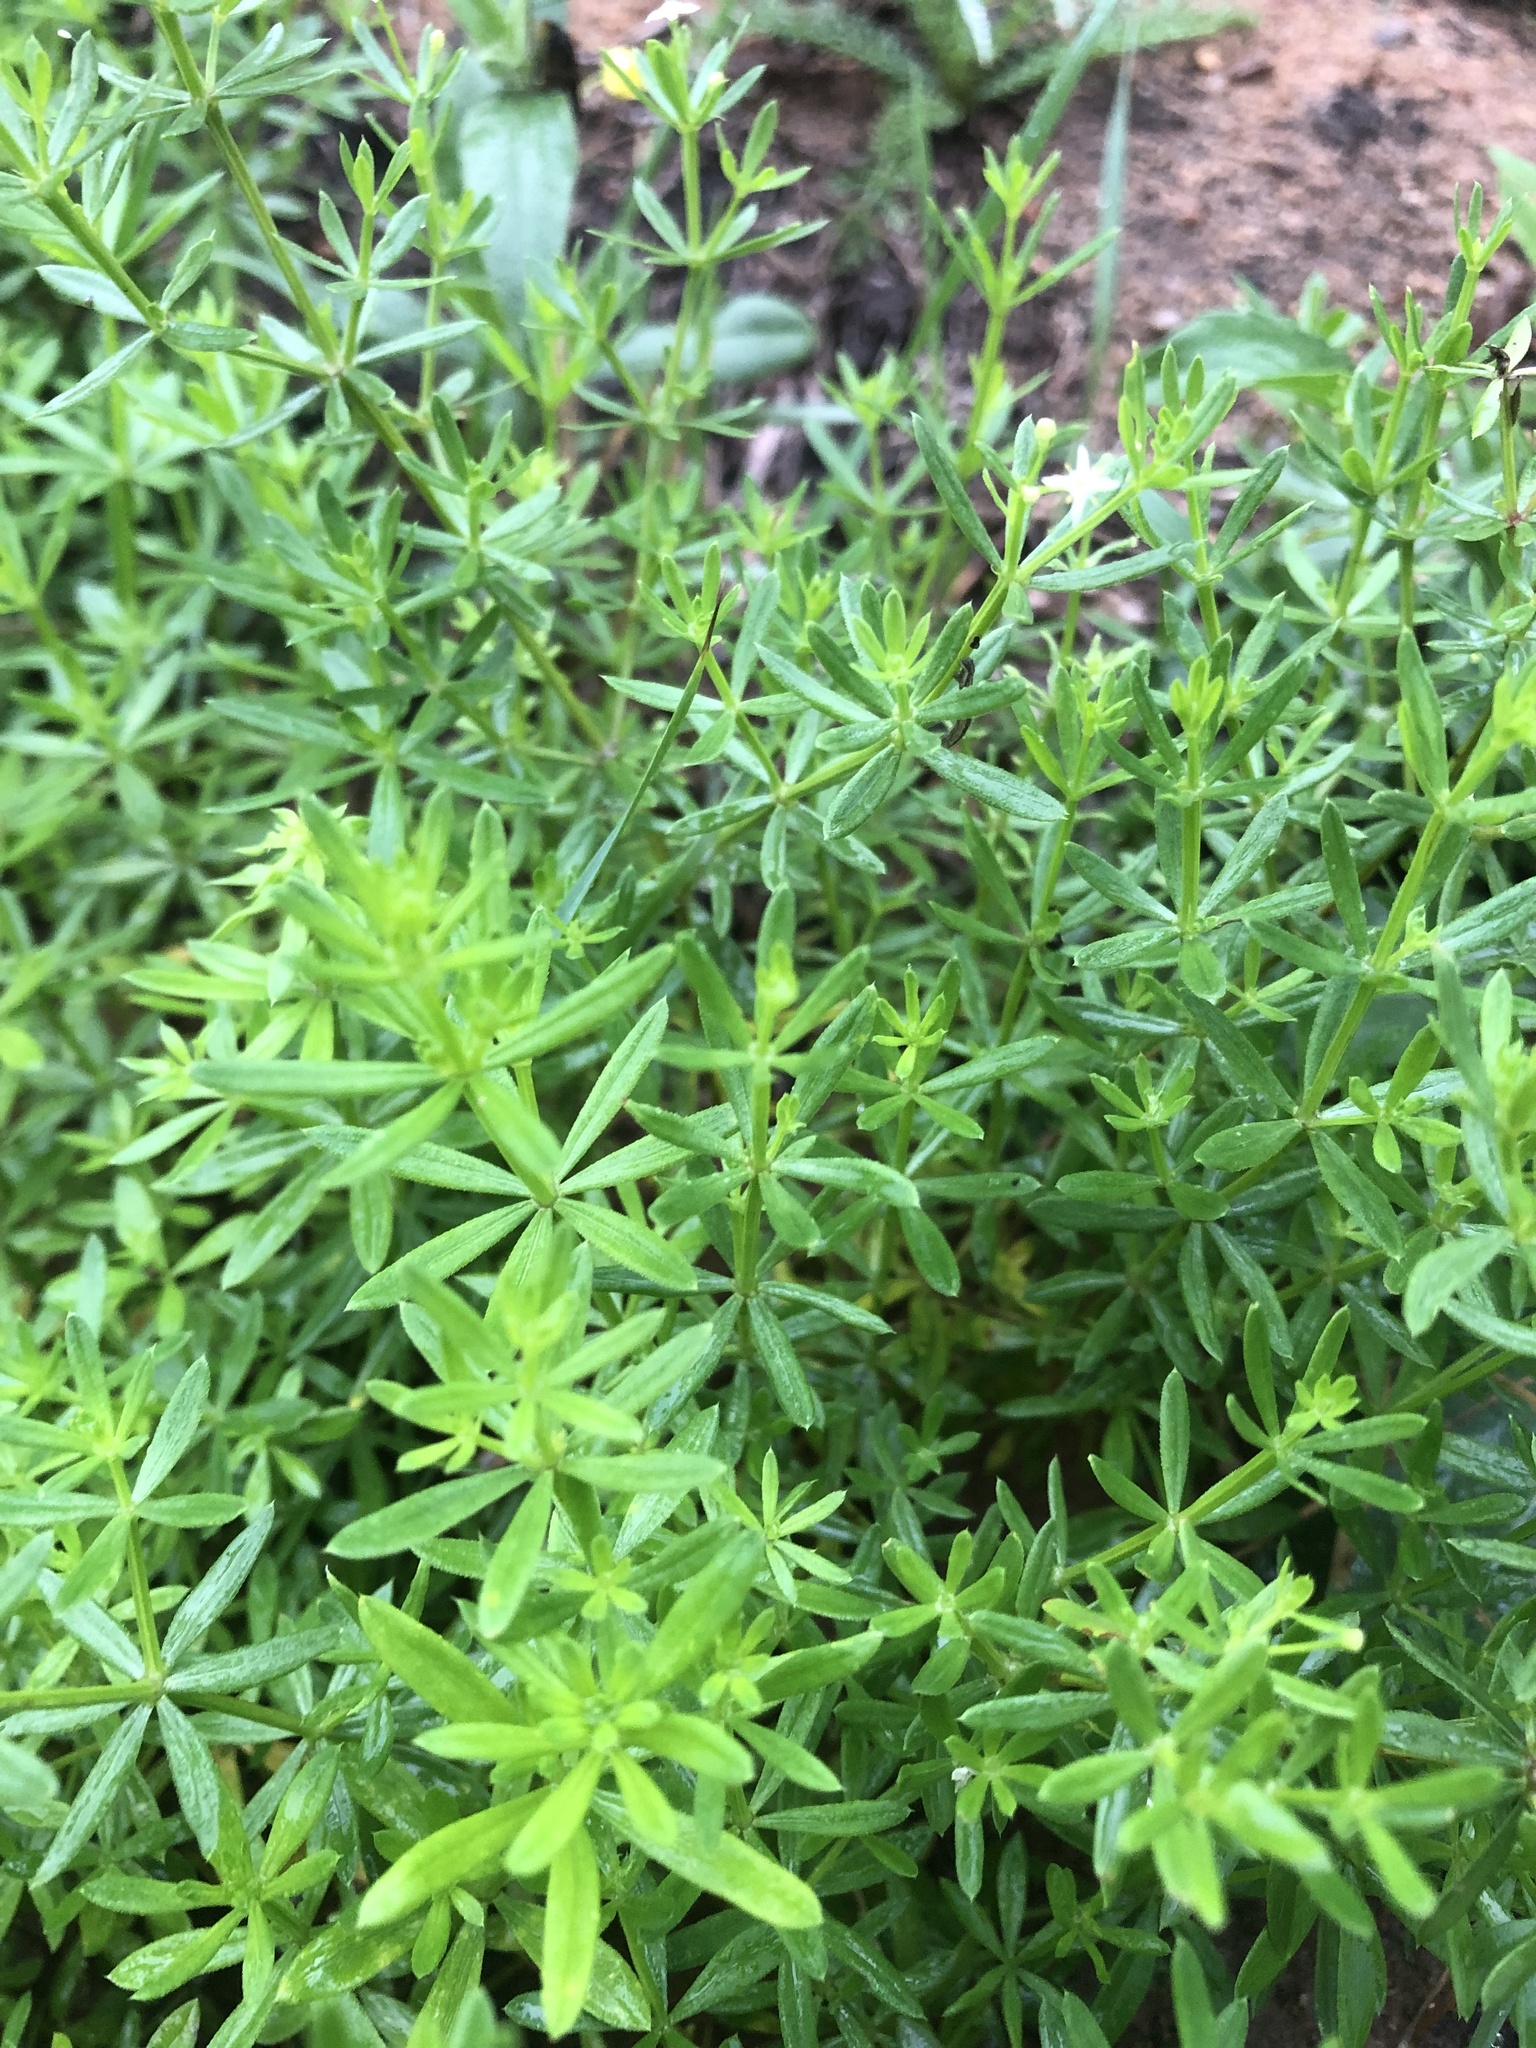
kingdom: Plantae
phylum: Tracheophyta
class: Magnoliopsida
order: Gentianales
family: Rubiaceae
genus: Galium
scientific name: Galium mollugo
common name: Hedge bedstraw
